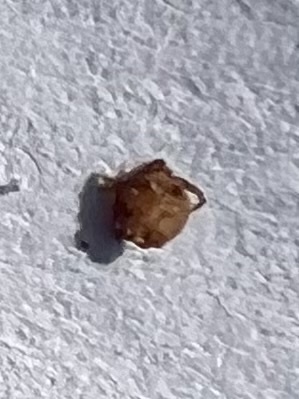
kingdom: Animalia
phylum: Arthropoda
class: Arachnida
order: Ixodida
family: Ixodidae
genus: Amblyomma
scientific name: Amblyomma americanum
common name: Lone star tick
